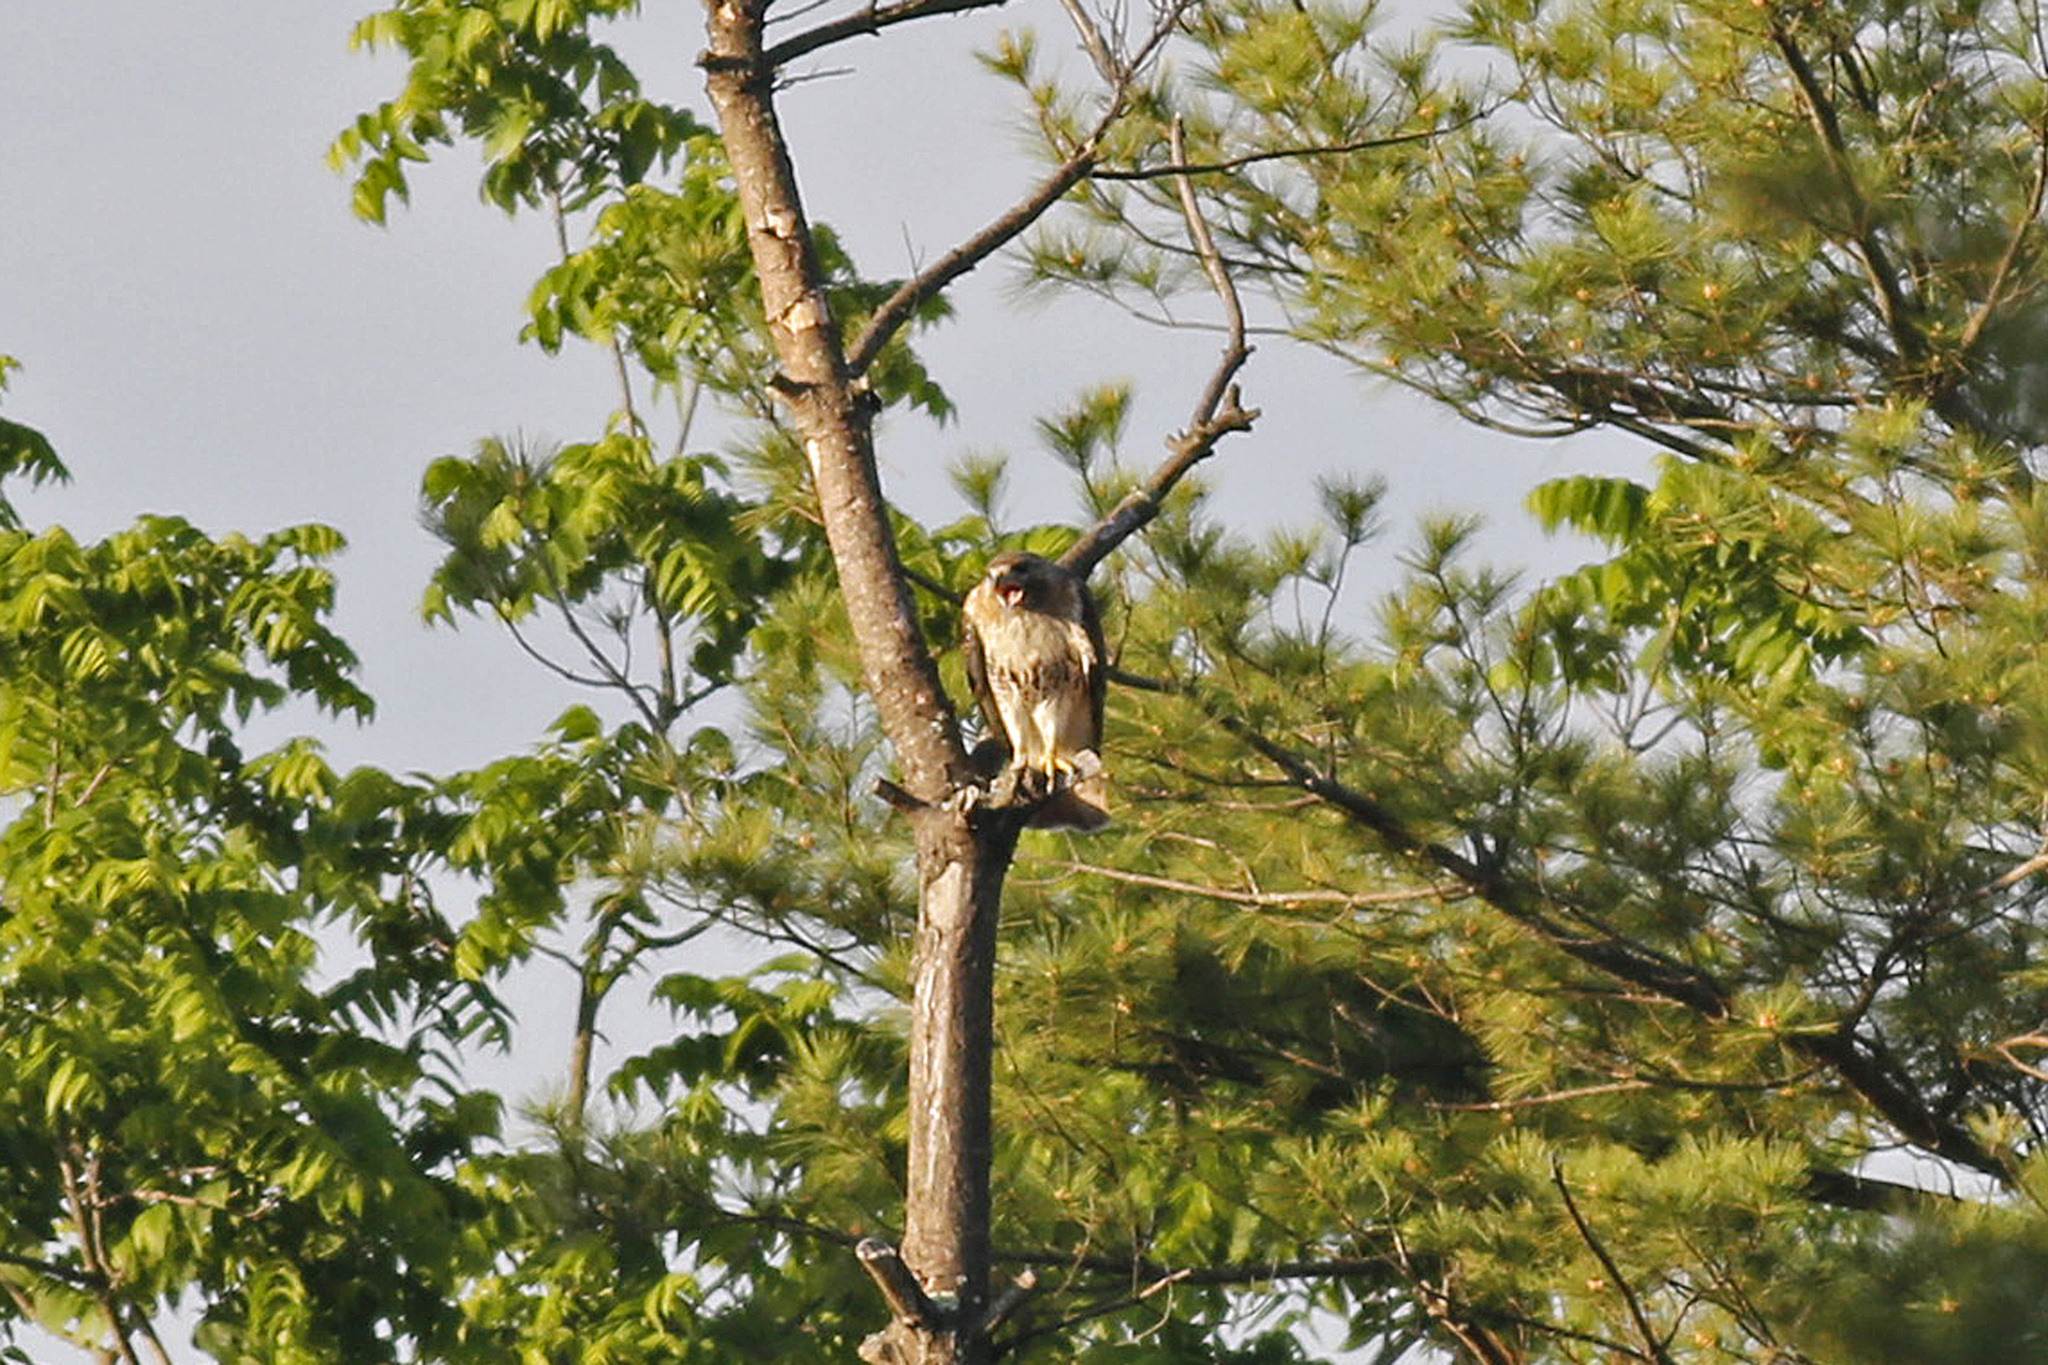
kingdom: Animalia
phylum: Chordata
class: Aves
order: Accipitriformes
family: Accipitridae
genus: Buteo
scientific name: Buteo jamaicensis
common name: Red-tailed hawk
